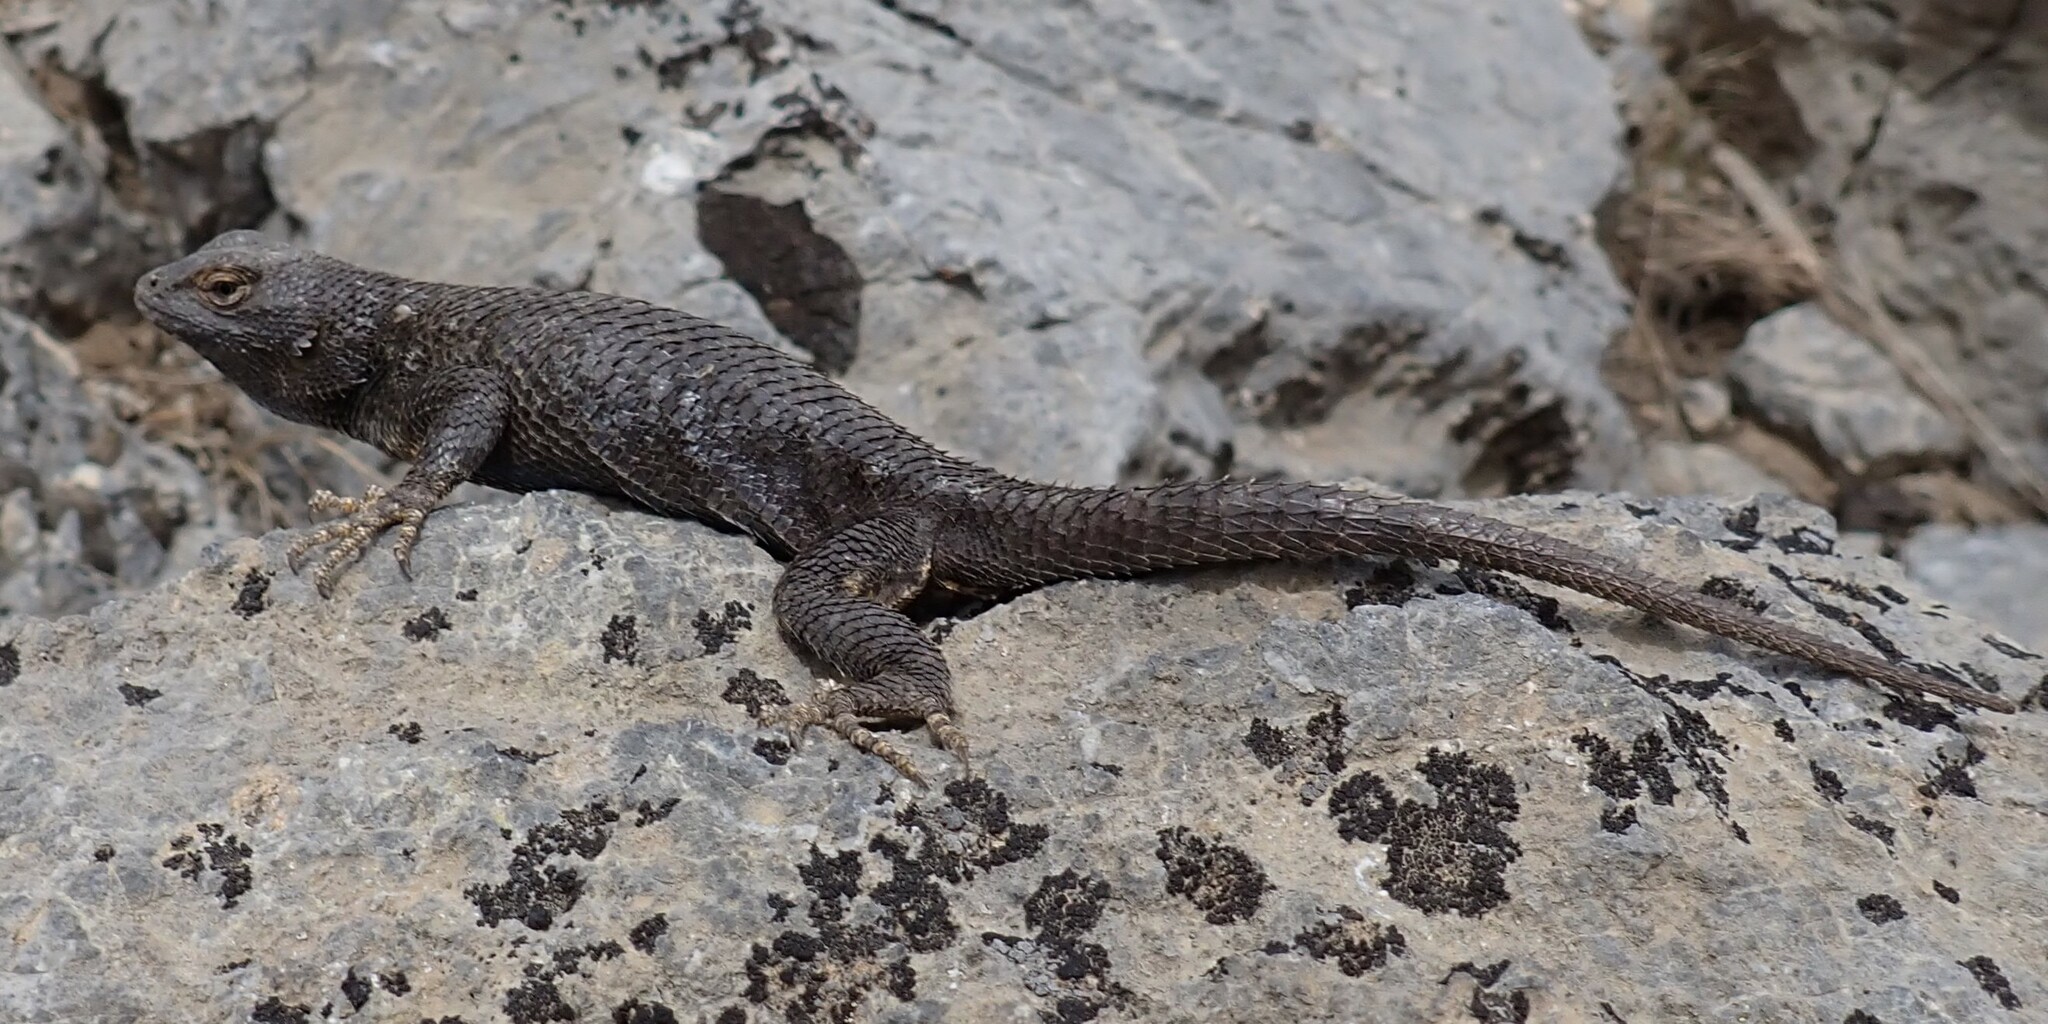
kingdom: Animalia
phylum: Chordata
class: Squamata
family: Phrynosomatidae
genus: Sceloporus
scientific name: Sceloporus occidentalis
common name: Western fence lizard
